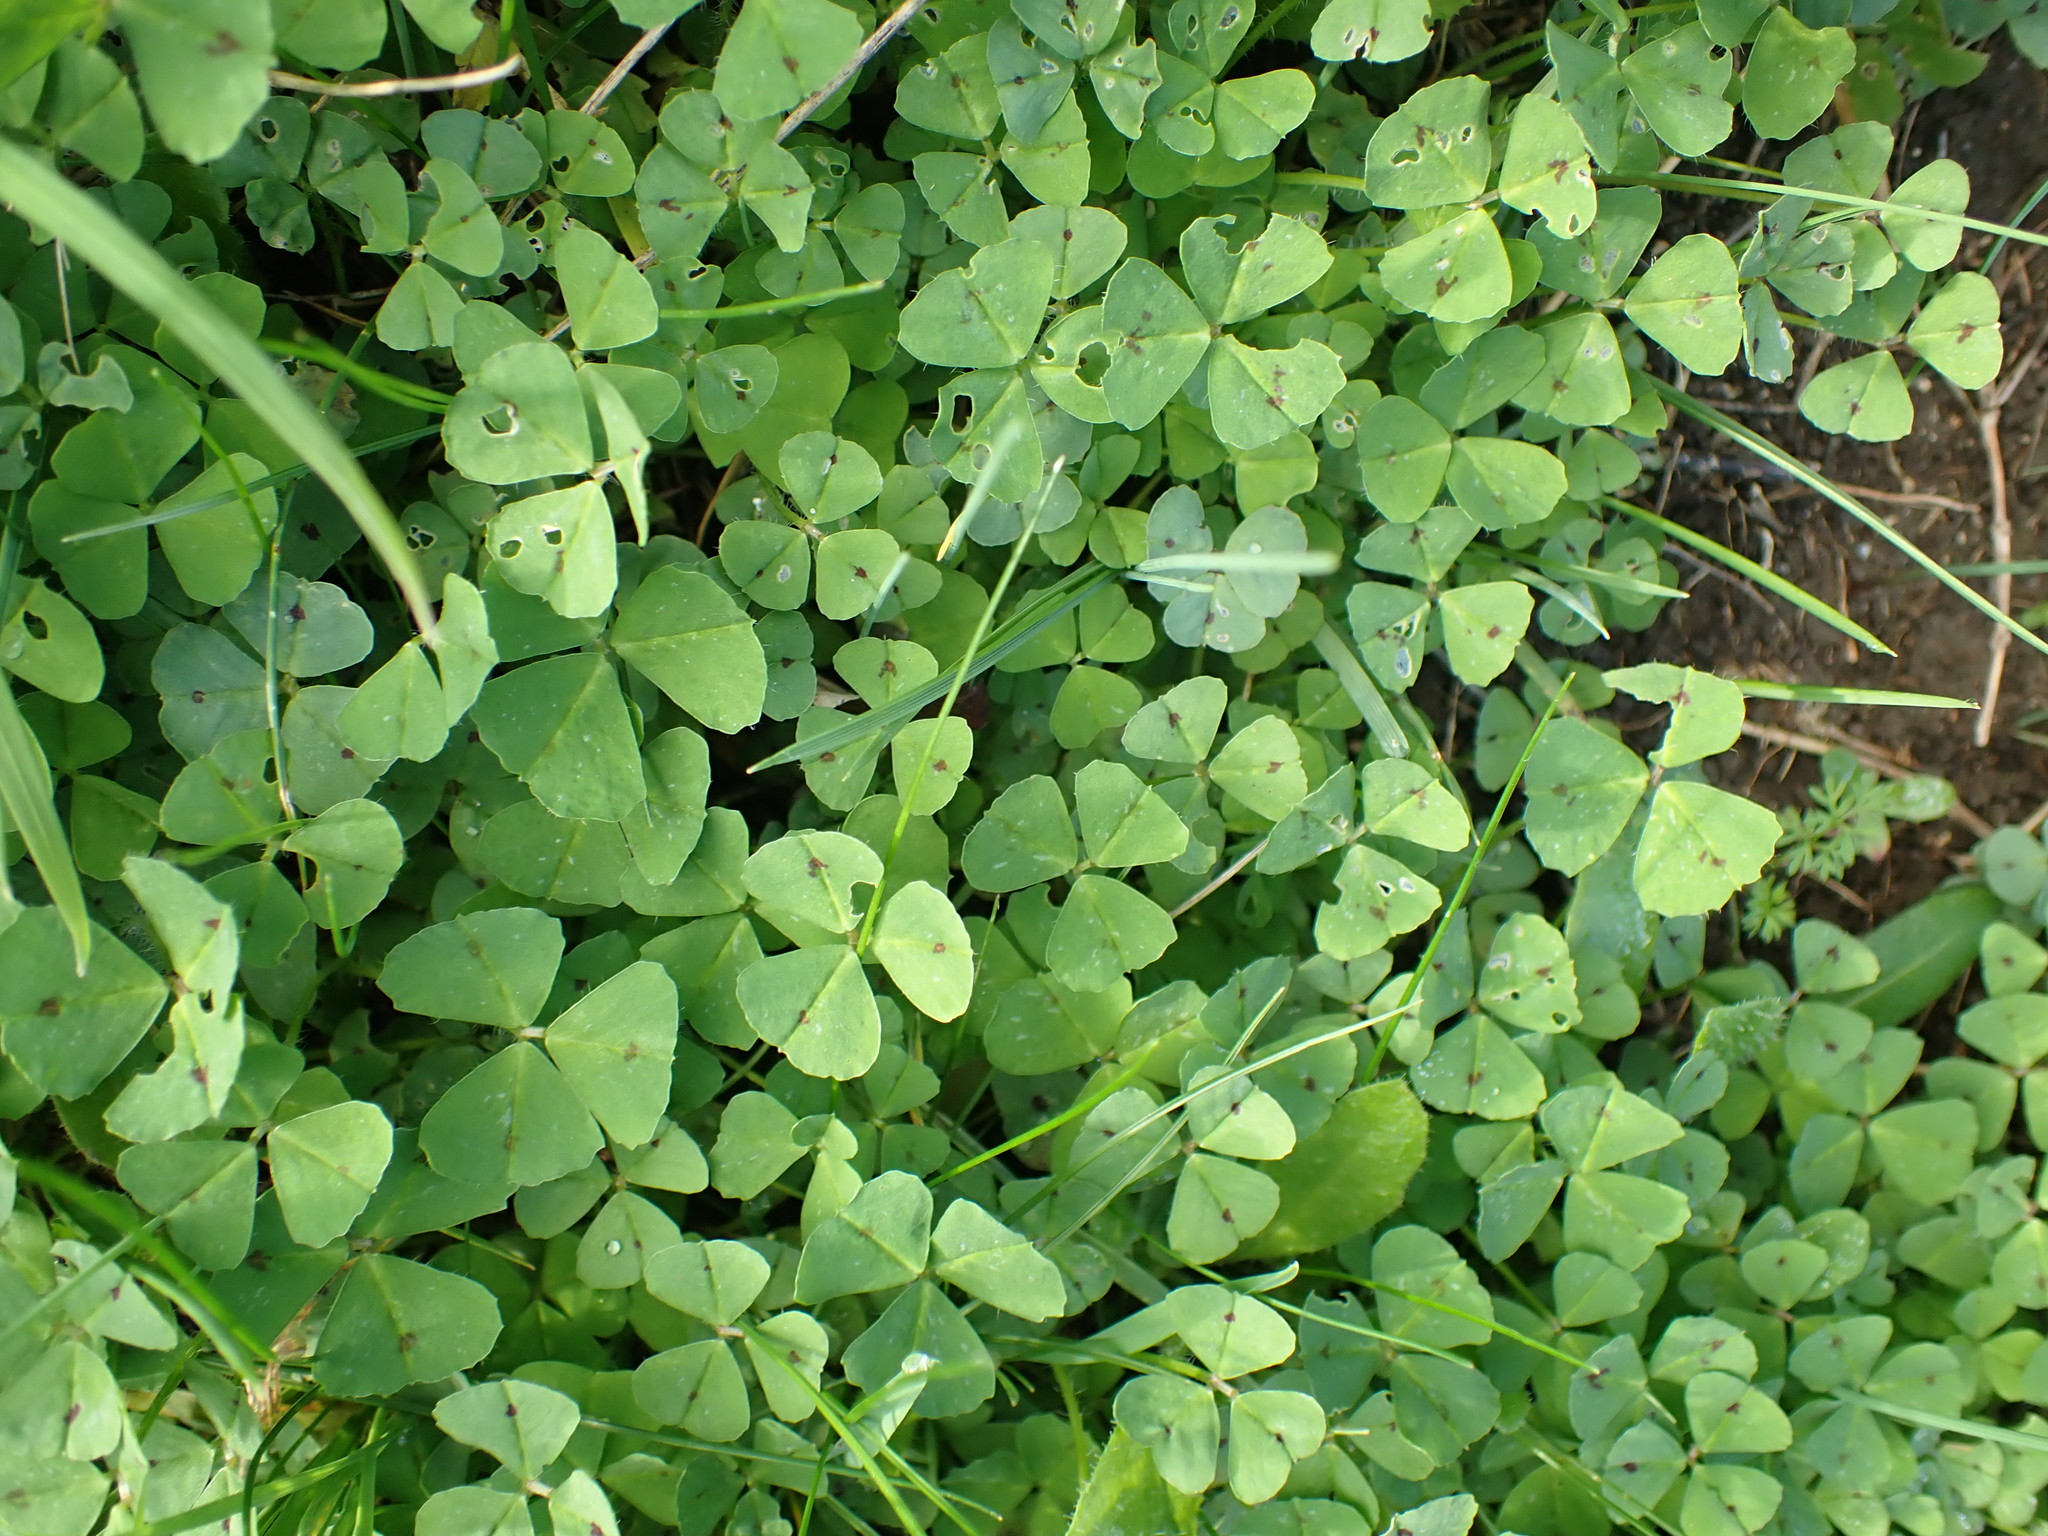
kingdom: Plantae
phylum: Tracheophyta
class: Magnoliopsida
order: Fabales
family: Fabaceae
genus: Medicago
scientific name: Medicago arabica
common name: Spotted medick
